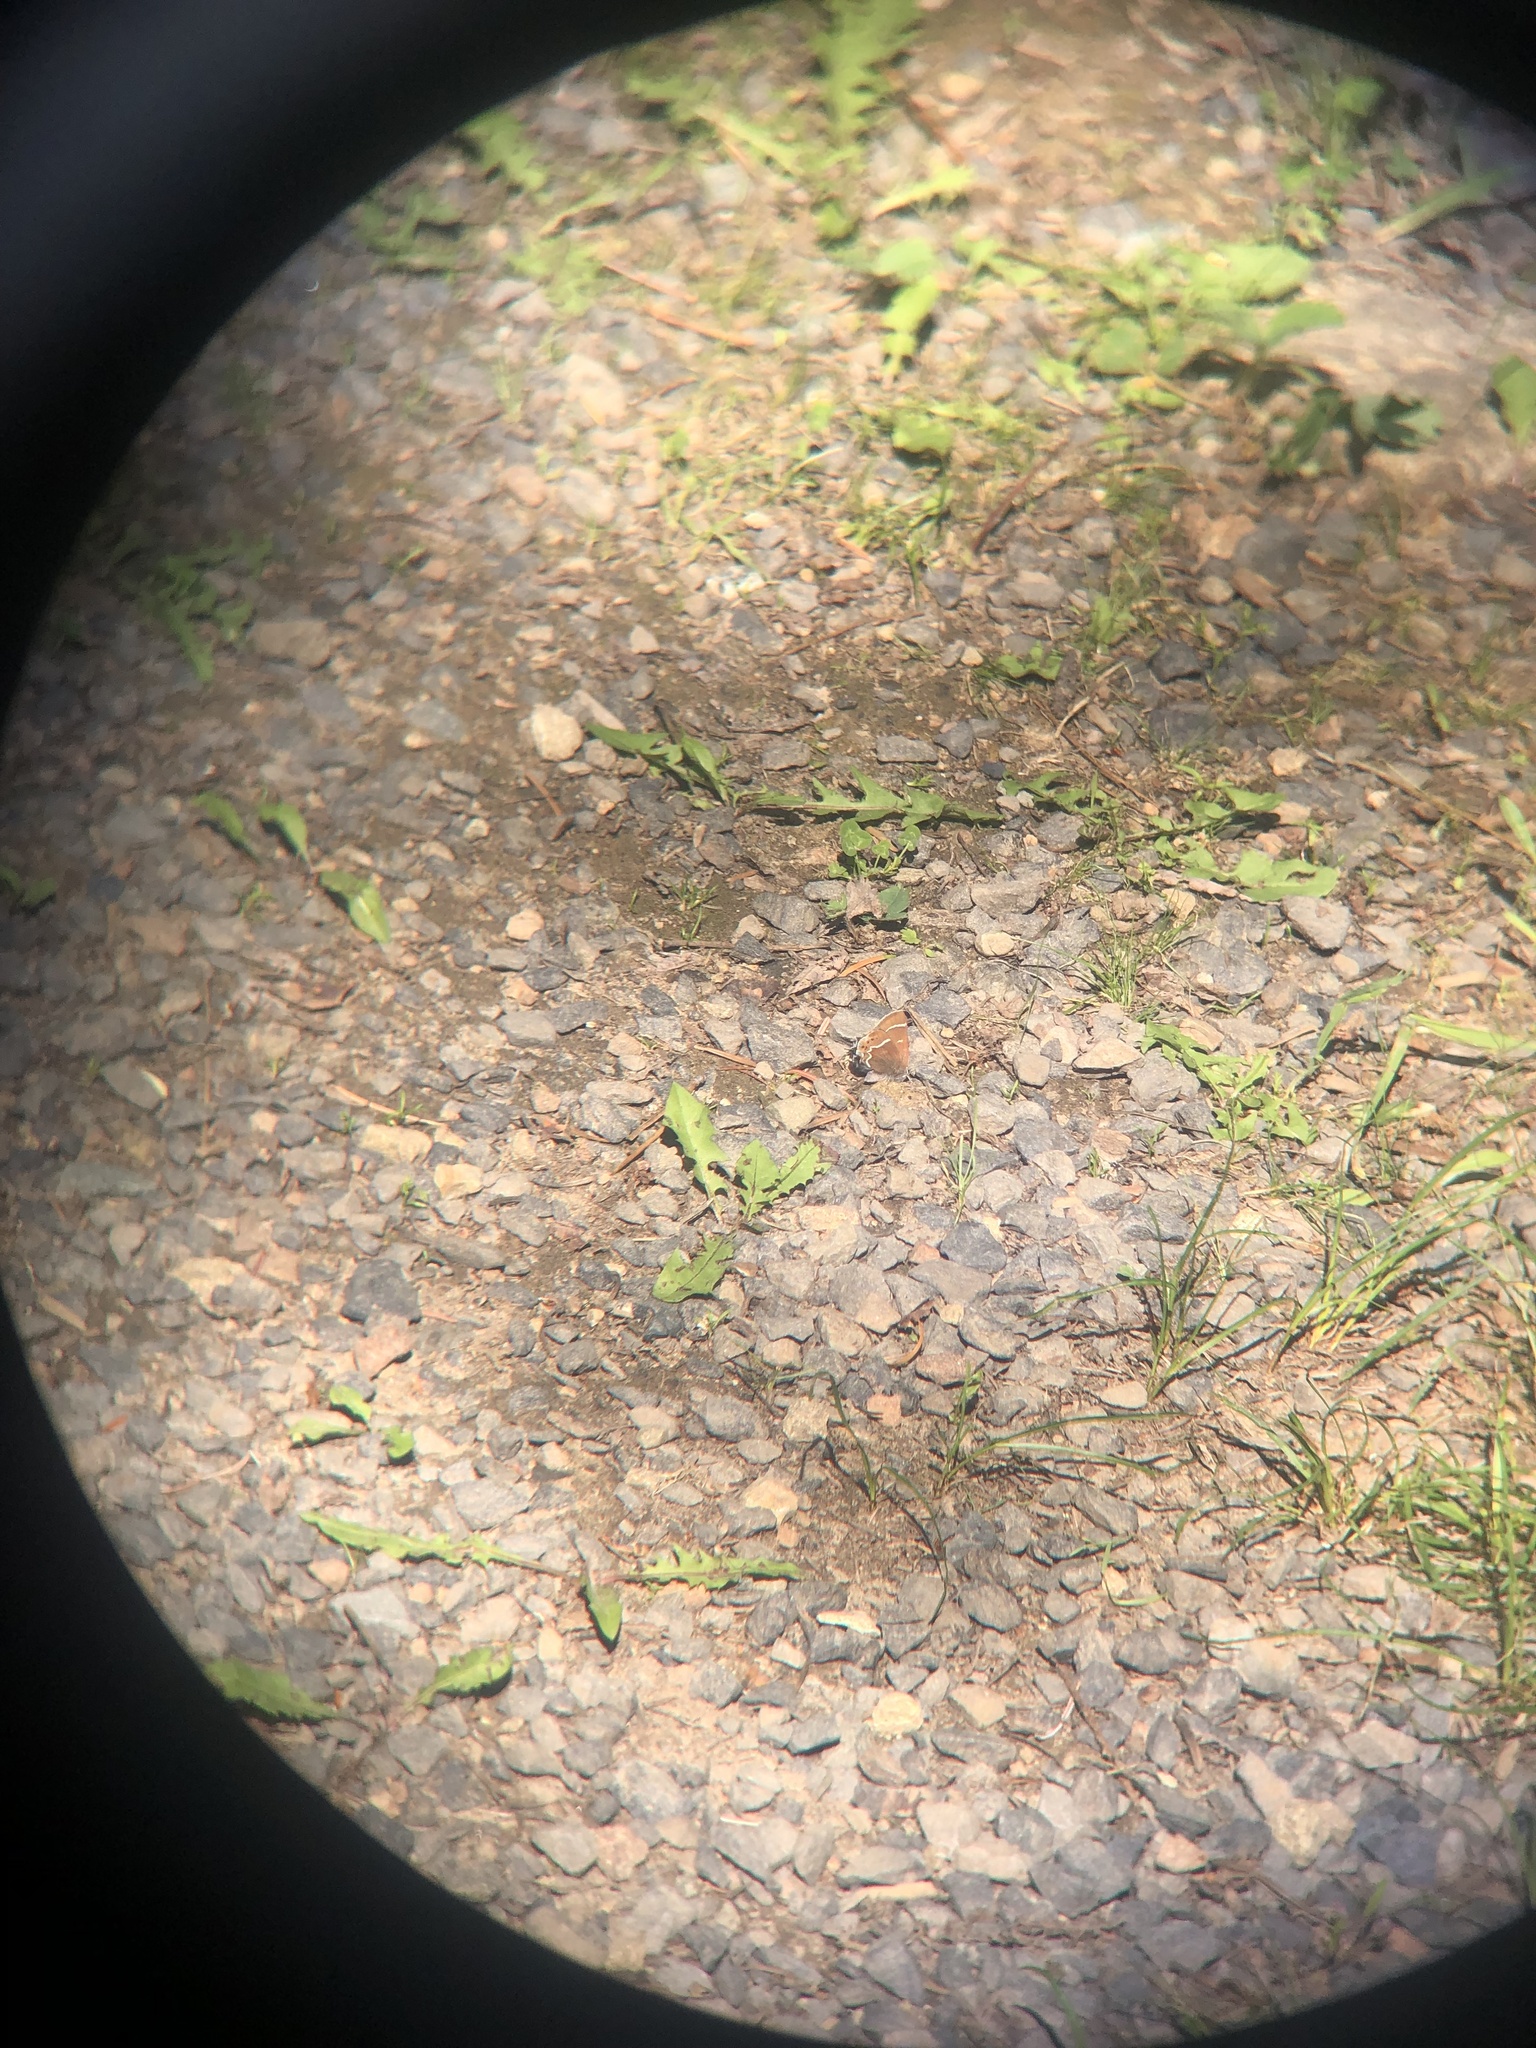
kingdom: Animalia
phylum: Arthropoda
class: Insecta
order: Lepidoptera
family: Lycaenidae
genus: Mitoura
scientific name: Mitoura spinetorum
